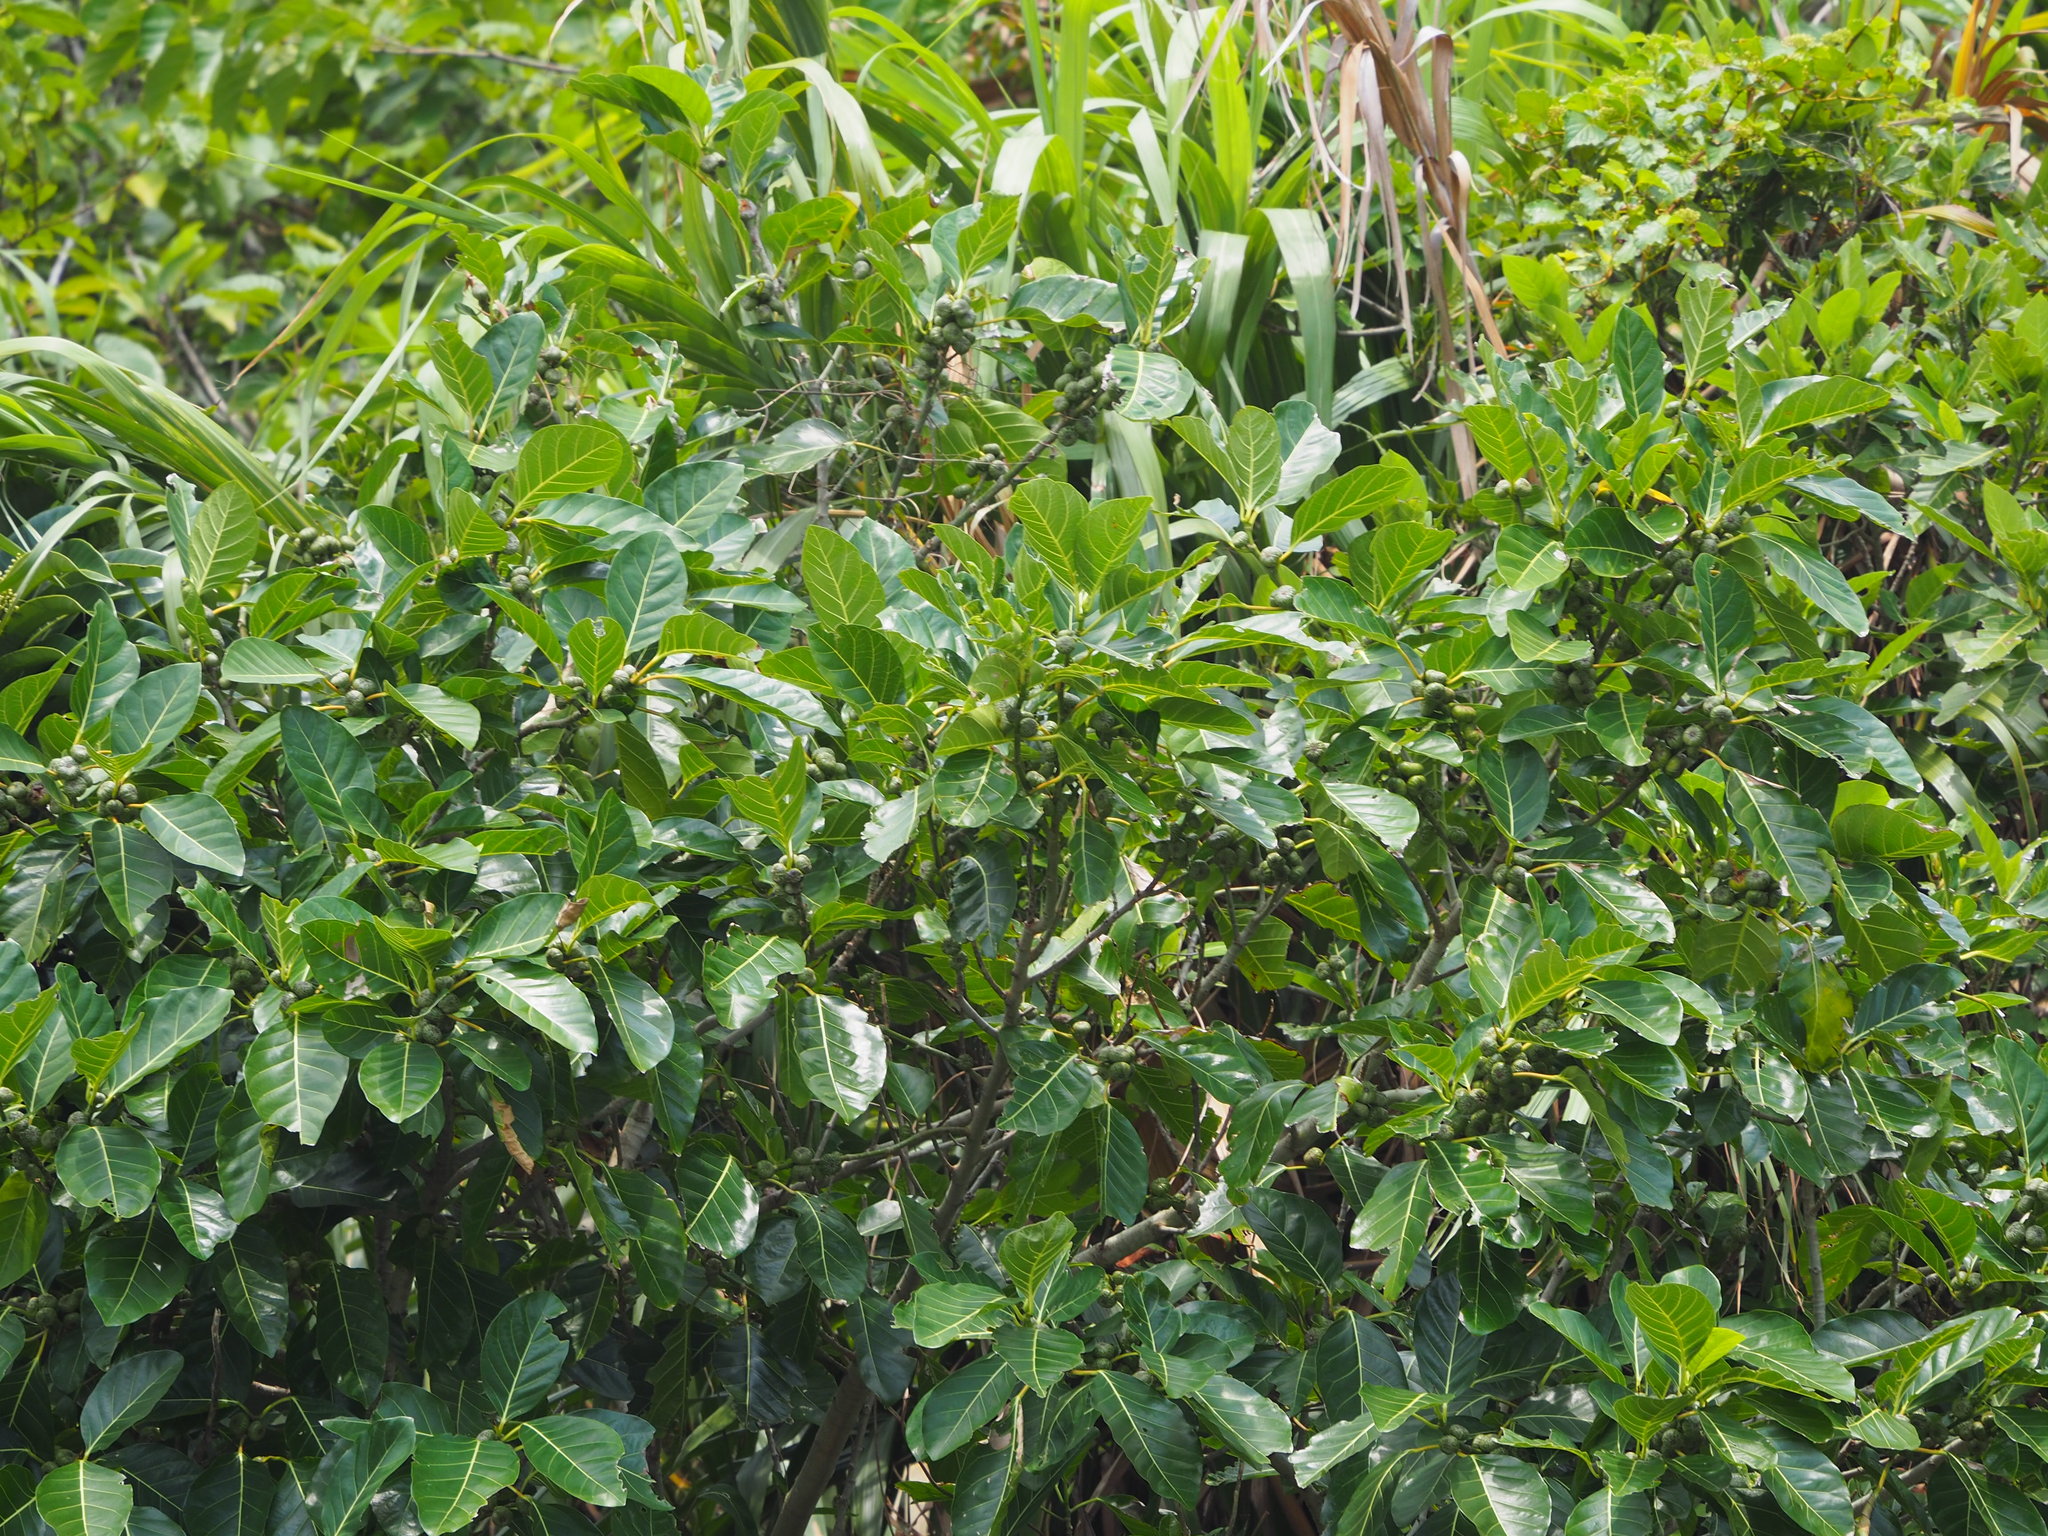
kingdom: Plantae
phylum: Tracheophyta
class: Magnoliopsida
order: Rosales
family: Moraceae
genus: Ficus
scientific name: Ficus septica
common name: Septic fig
